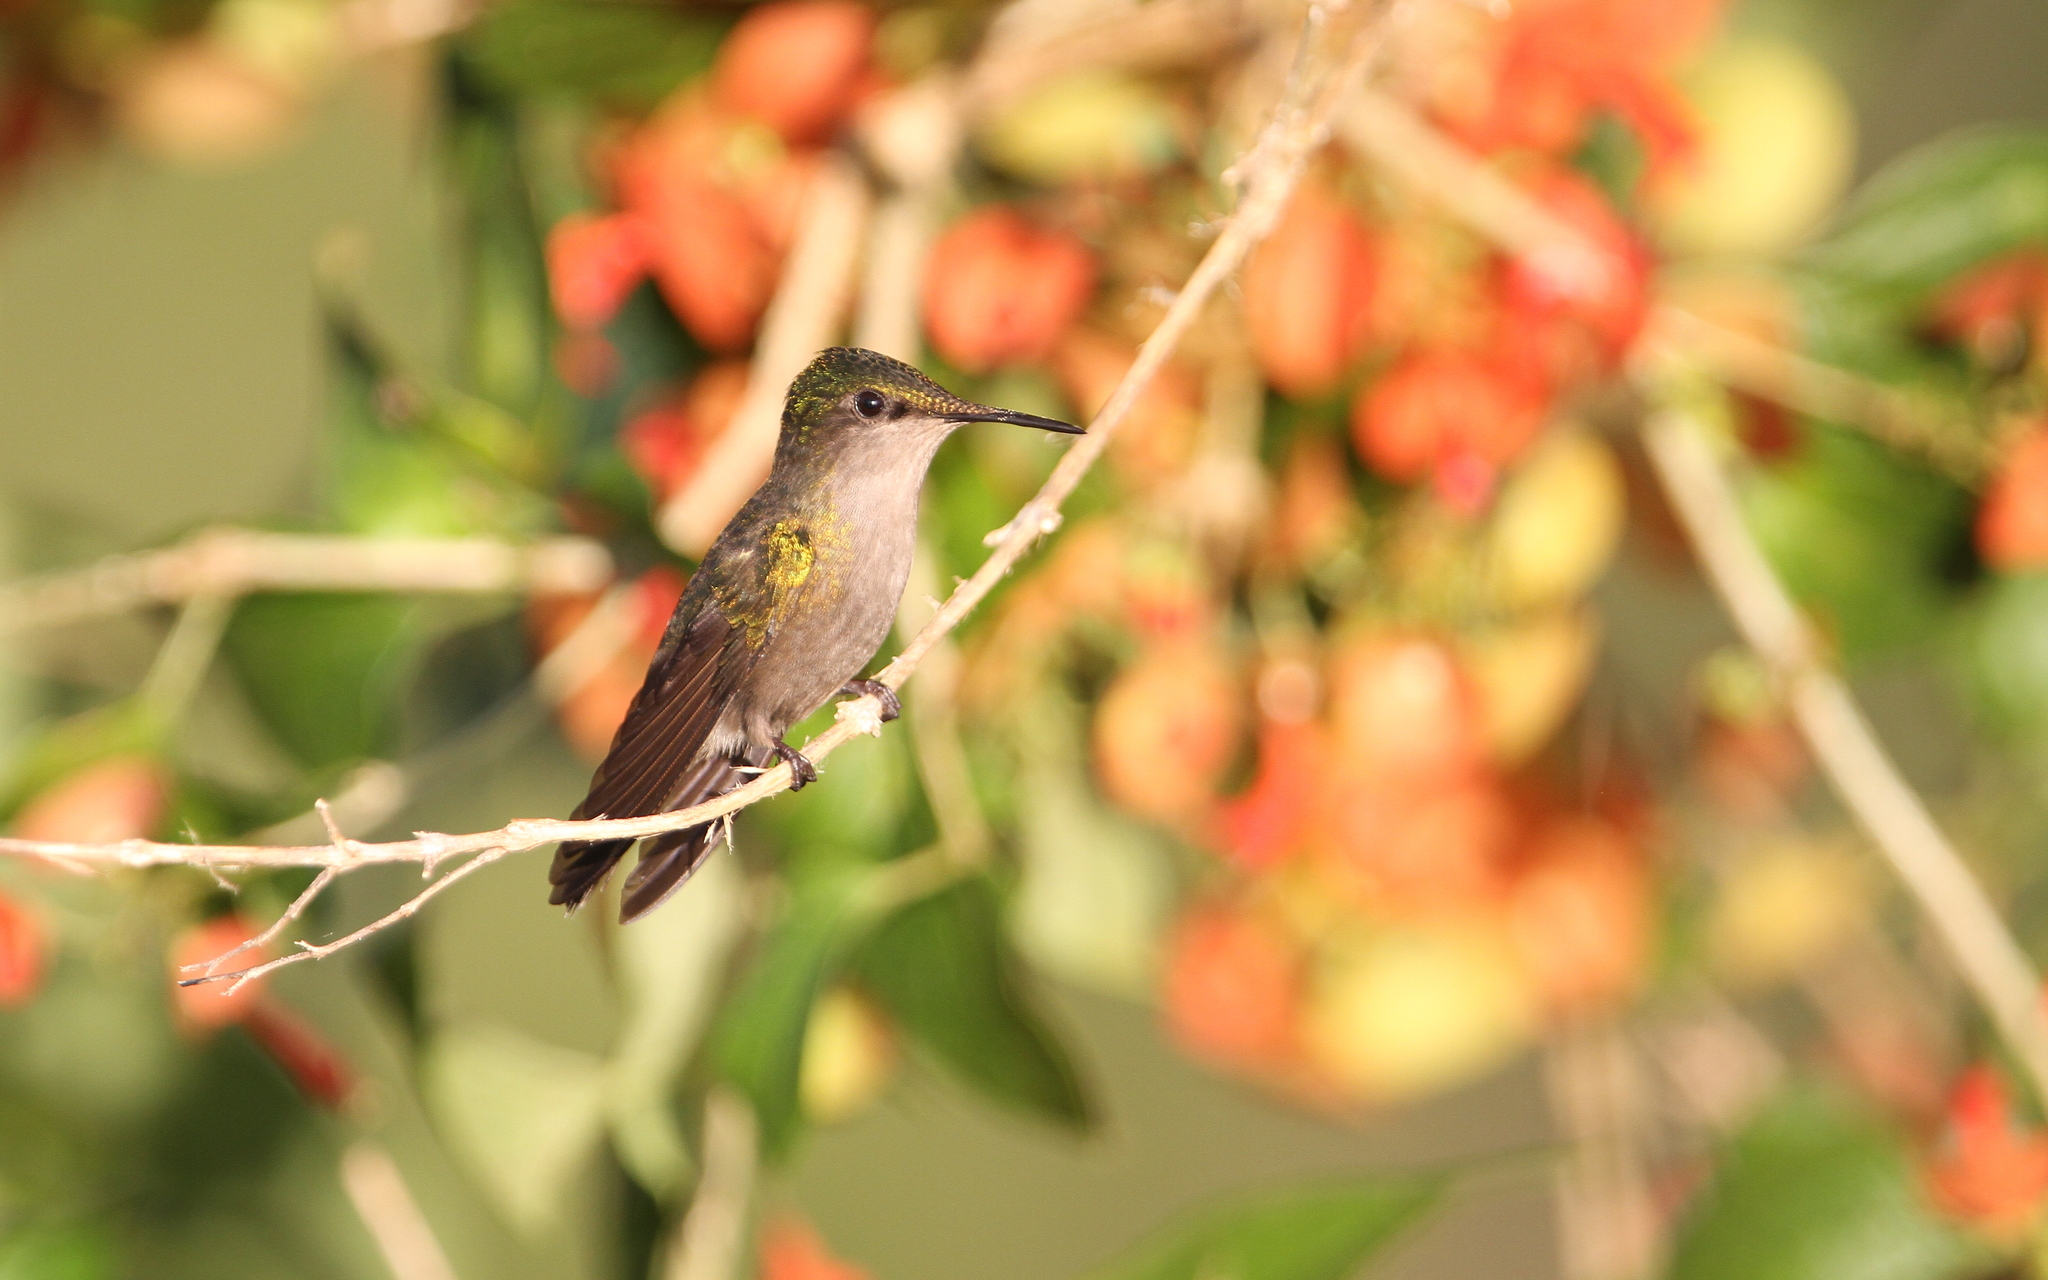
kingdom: Animalia
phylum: Chordata
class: Aves
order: Apodiformes
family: Trochilidae
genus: Orthorhyncus
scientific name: Orthorhyncus cristatus
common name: Antillean crested hummingbird
